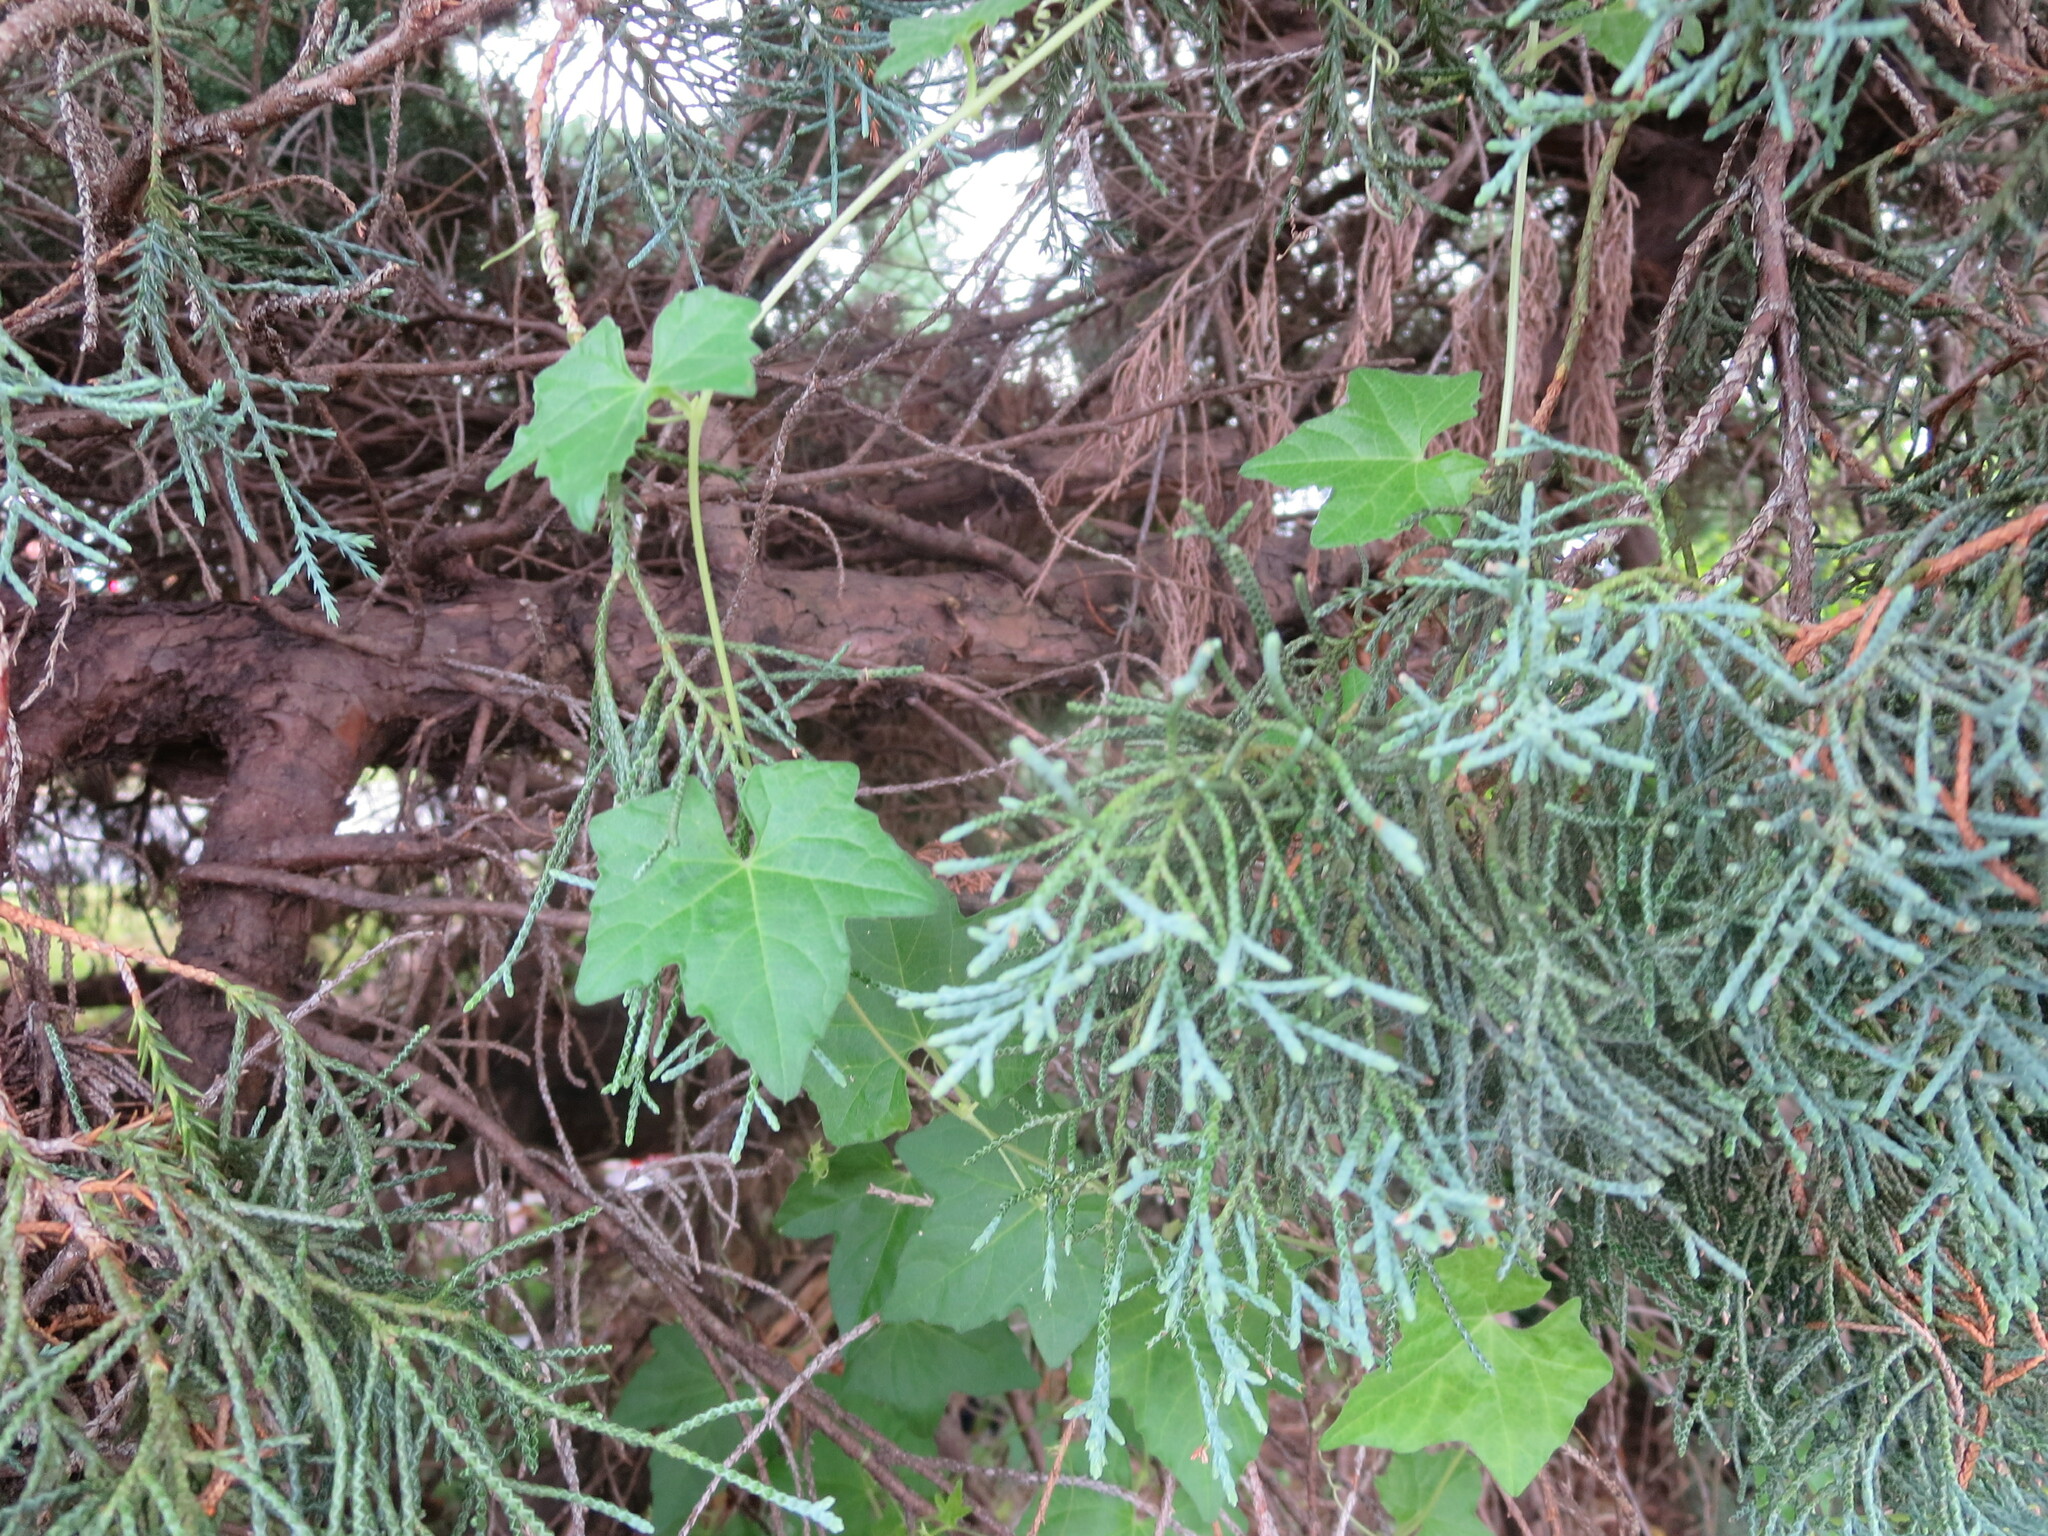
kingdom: Plantae
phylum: Tracheophyta
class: Magnoliopsida
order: Cucurbitales
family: Cucurbitaceae
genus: Melothria
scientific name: Melothria pendula
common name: Creeping-cucumber
